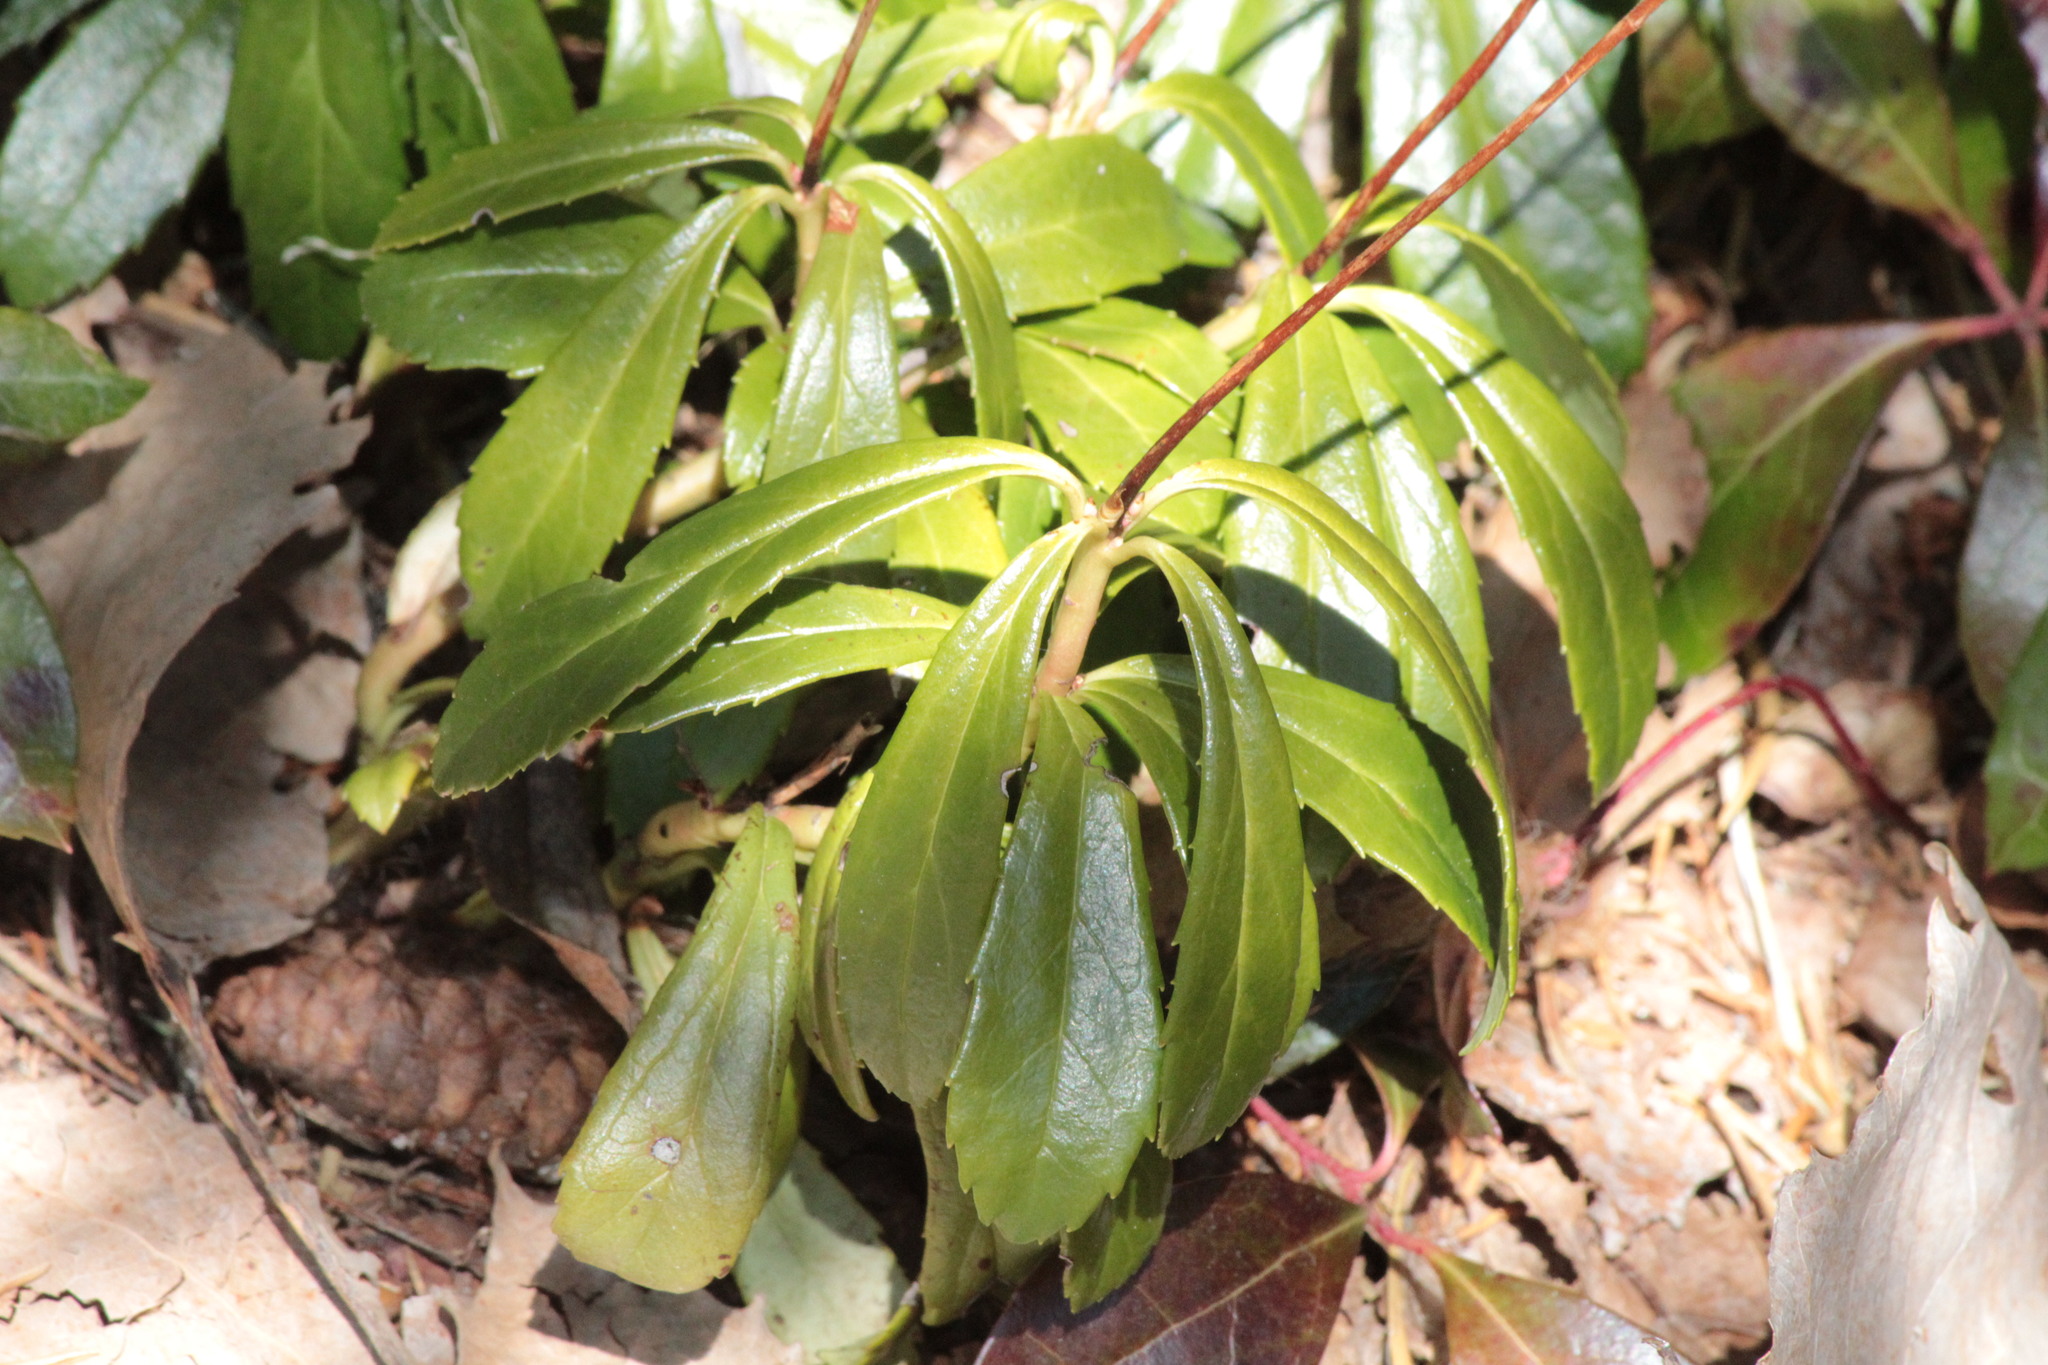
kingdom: Plantae
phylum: Tracheophyta
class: Magnoliopsida
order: Ericales
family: Ericaceae
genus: Chimaphila
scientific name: Chimaphila umbellata
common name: Pipsissewa
